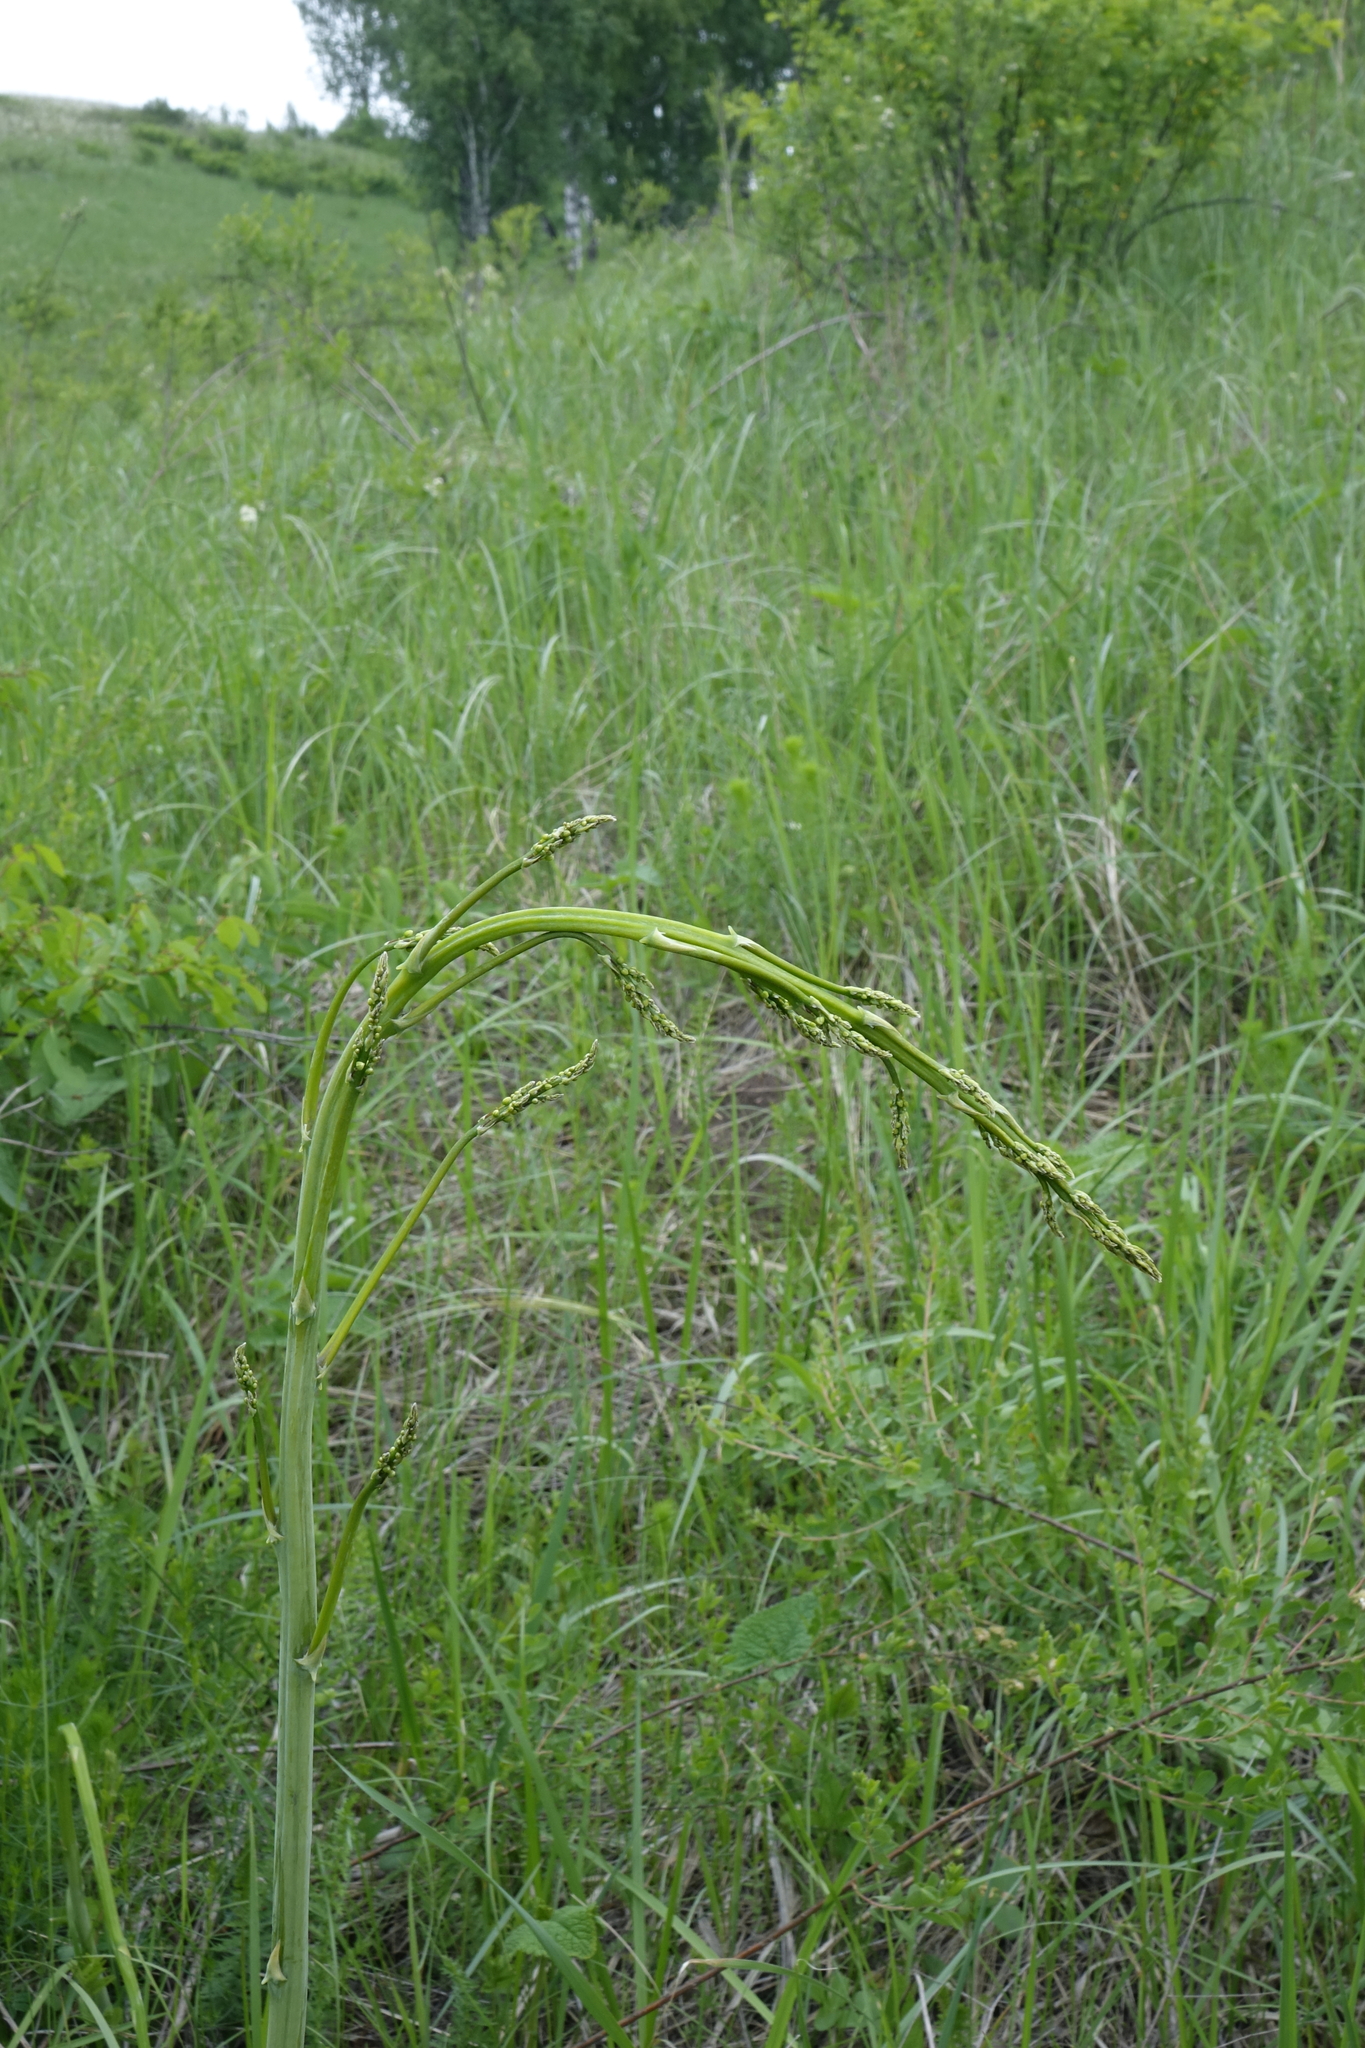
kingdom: Plantae
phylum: Tracheophyta
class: Liliopsida
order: Asparagales
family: Asparagaceae
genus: Asparagus
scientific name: Asparagus officinalis
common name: Garden asparagus
